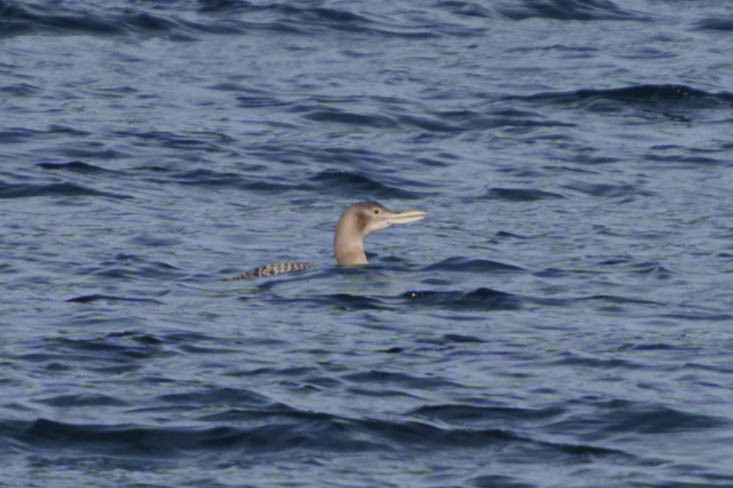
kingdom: Animalia
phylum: Chordata
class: Aves
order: Gaviiformes
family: Gaviidae
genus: Gavia
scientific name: Gavia adamsii
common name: Yellow-billed loon
